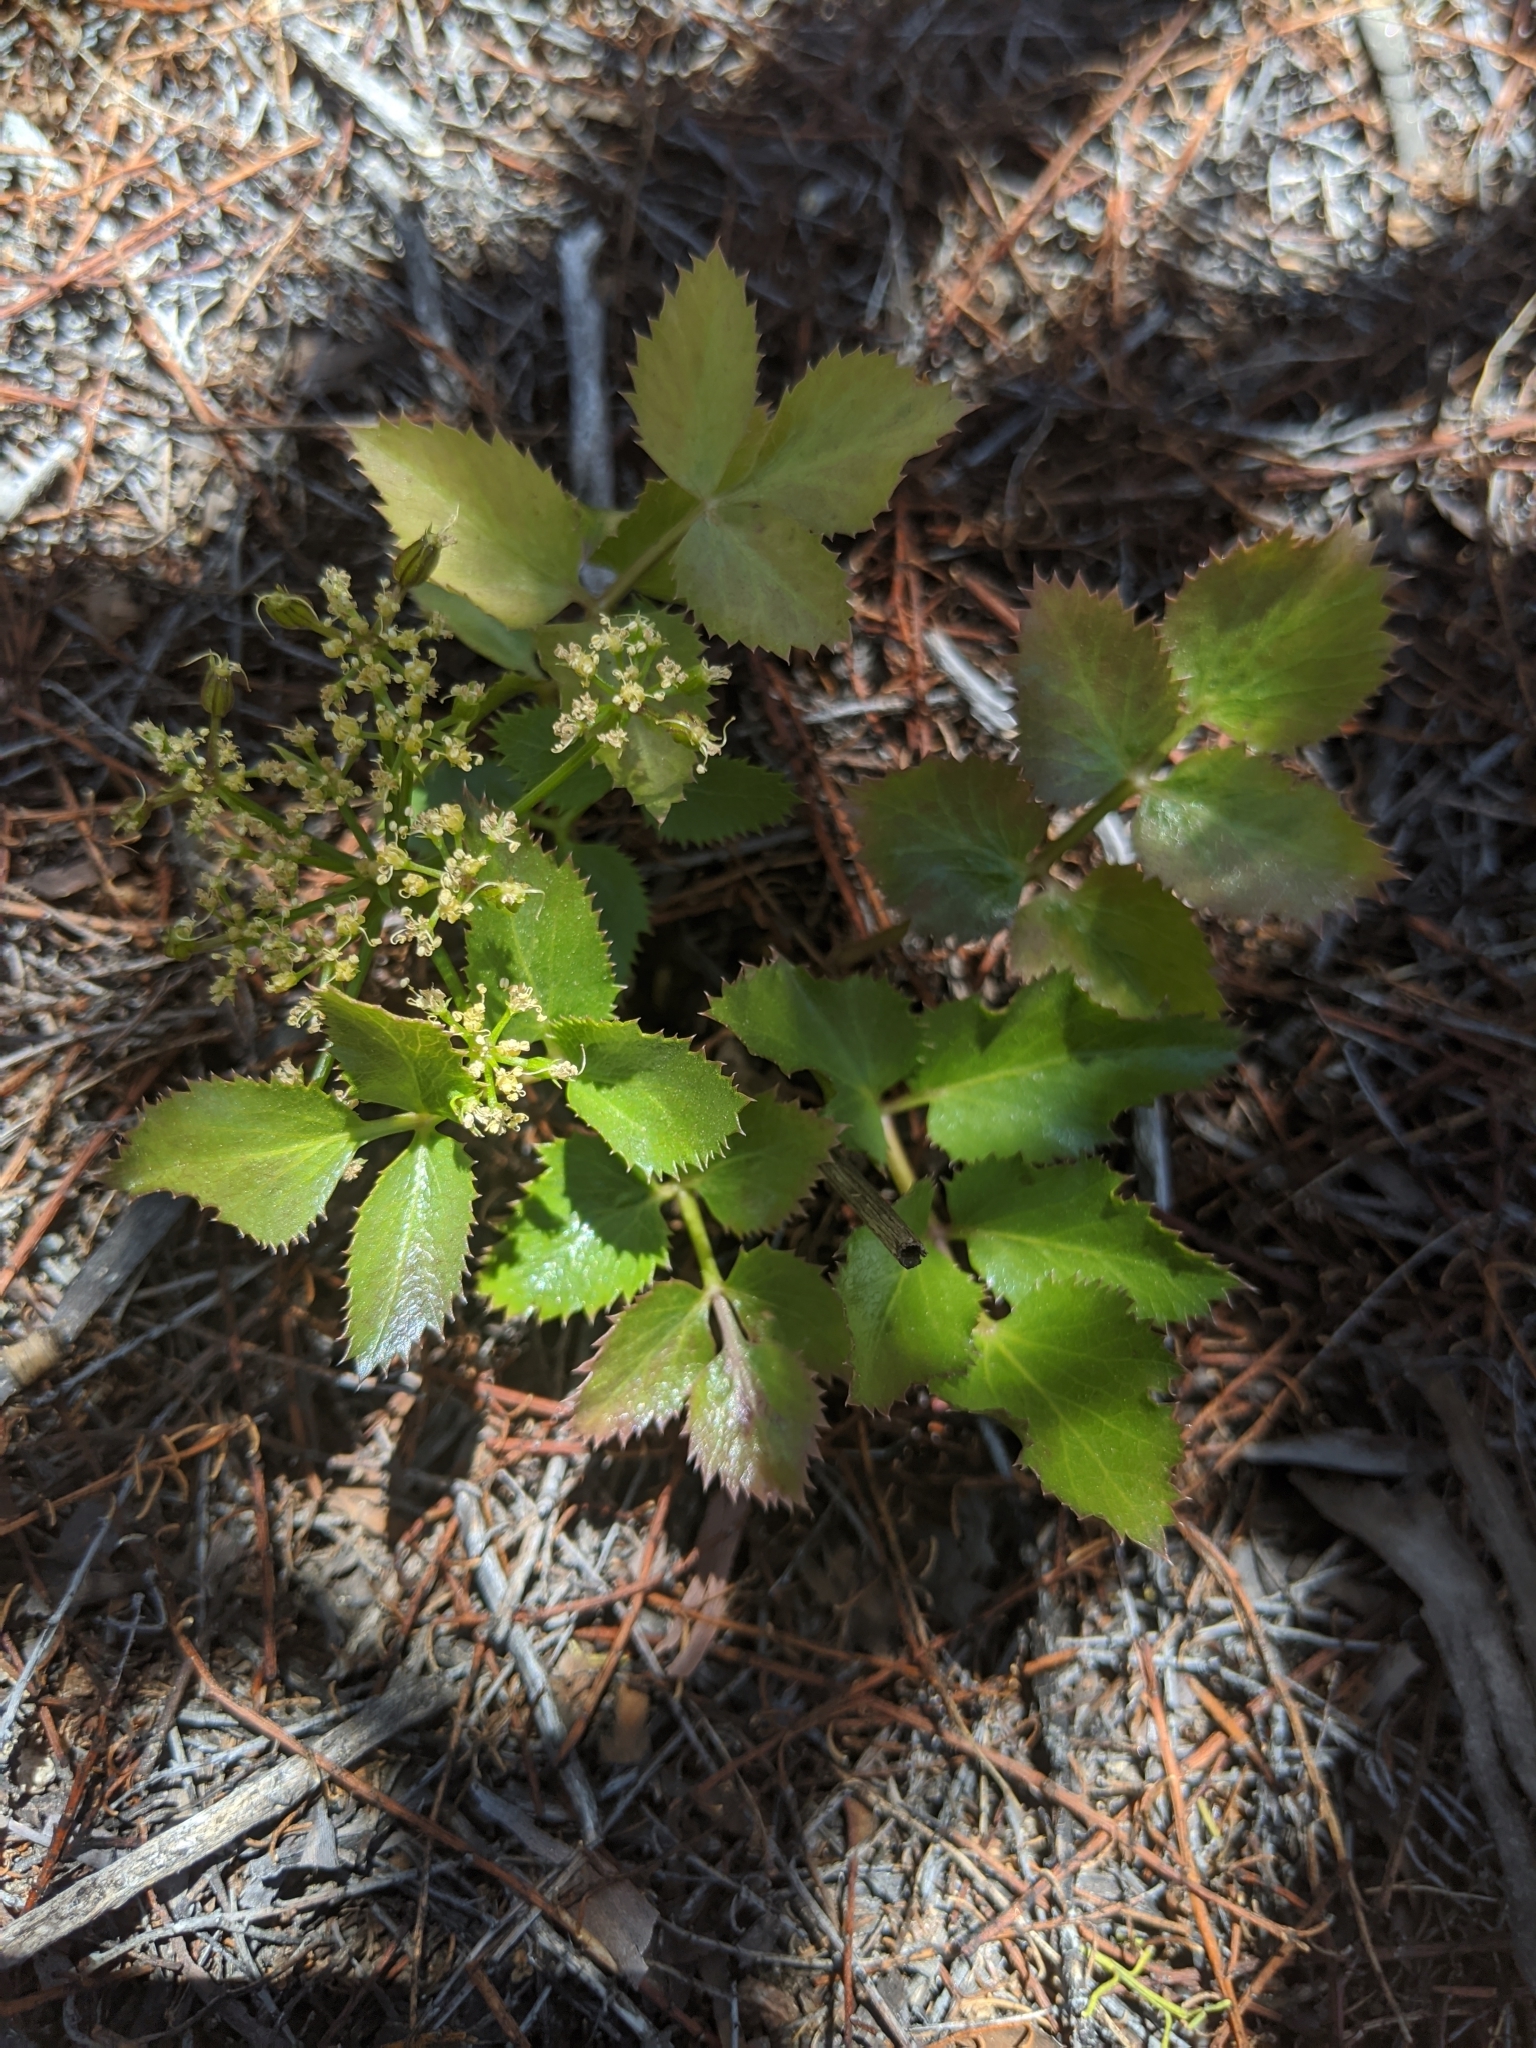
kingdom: Plantae
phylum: Tracheophyta
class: Magnoliopsida
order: Apiales
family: Apiaceae
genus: Tauschia
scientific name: Tauschia arguta
